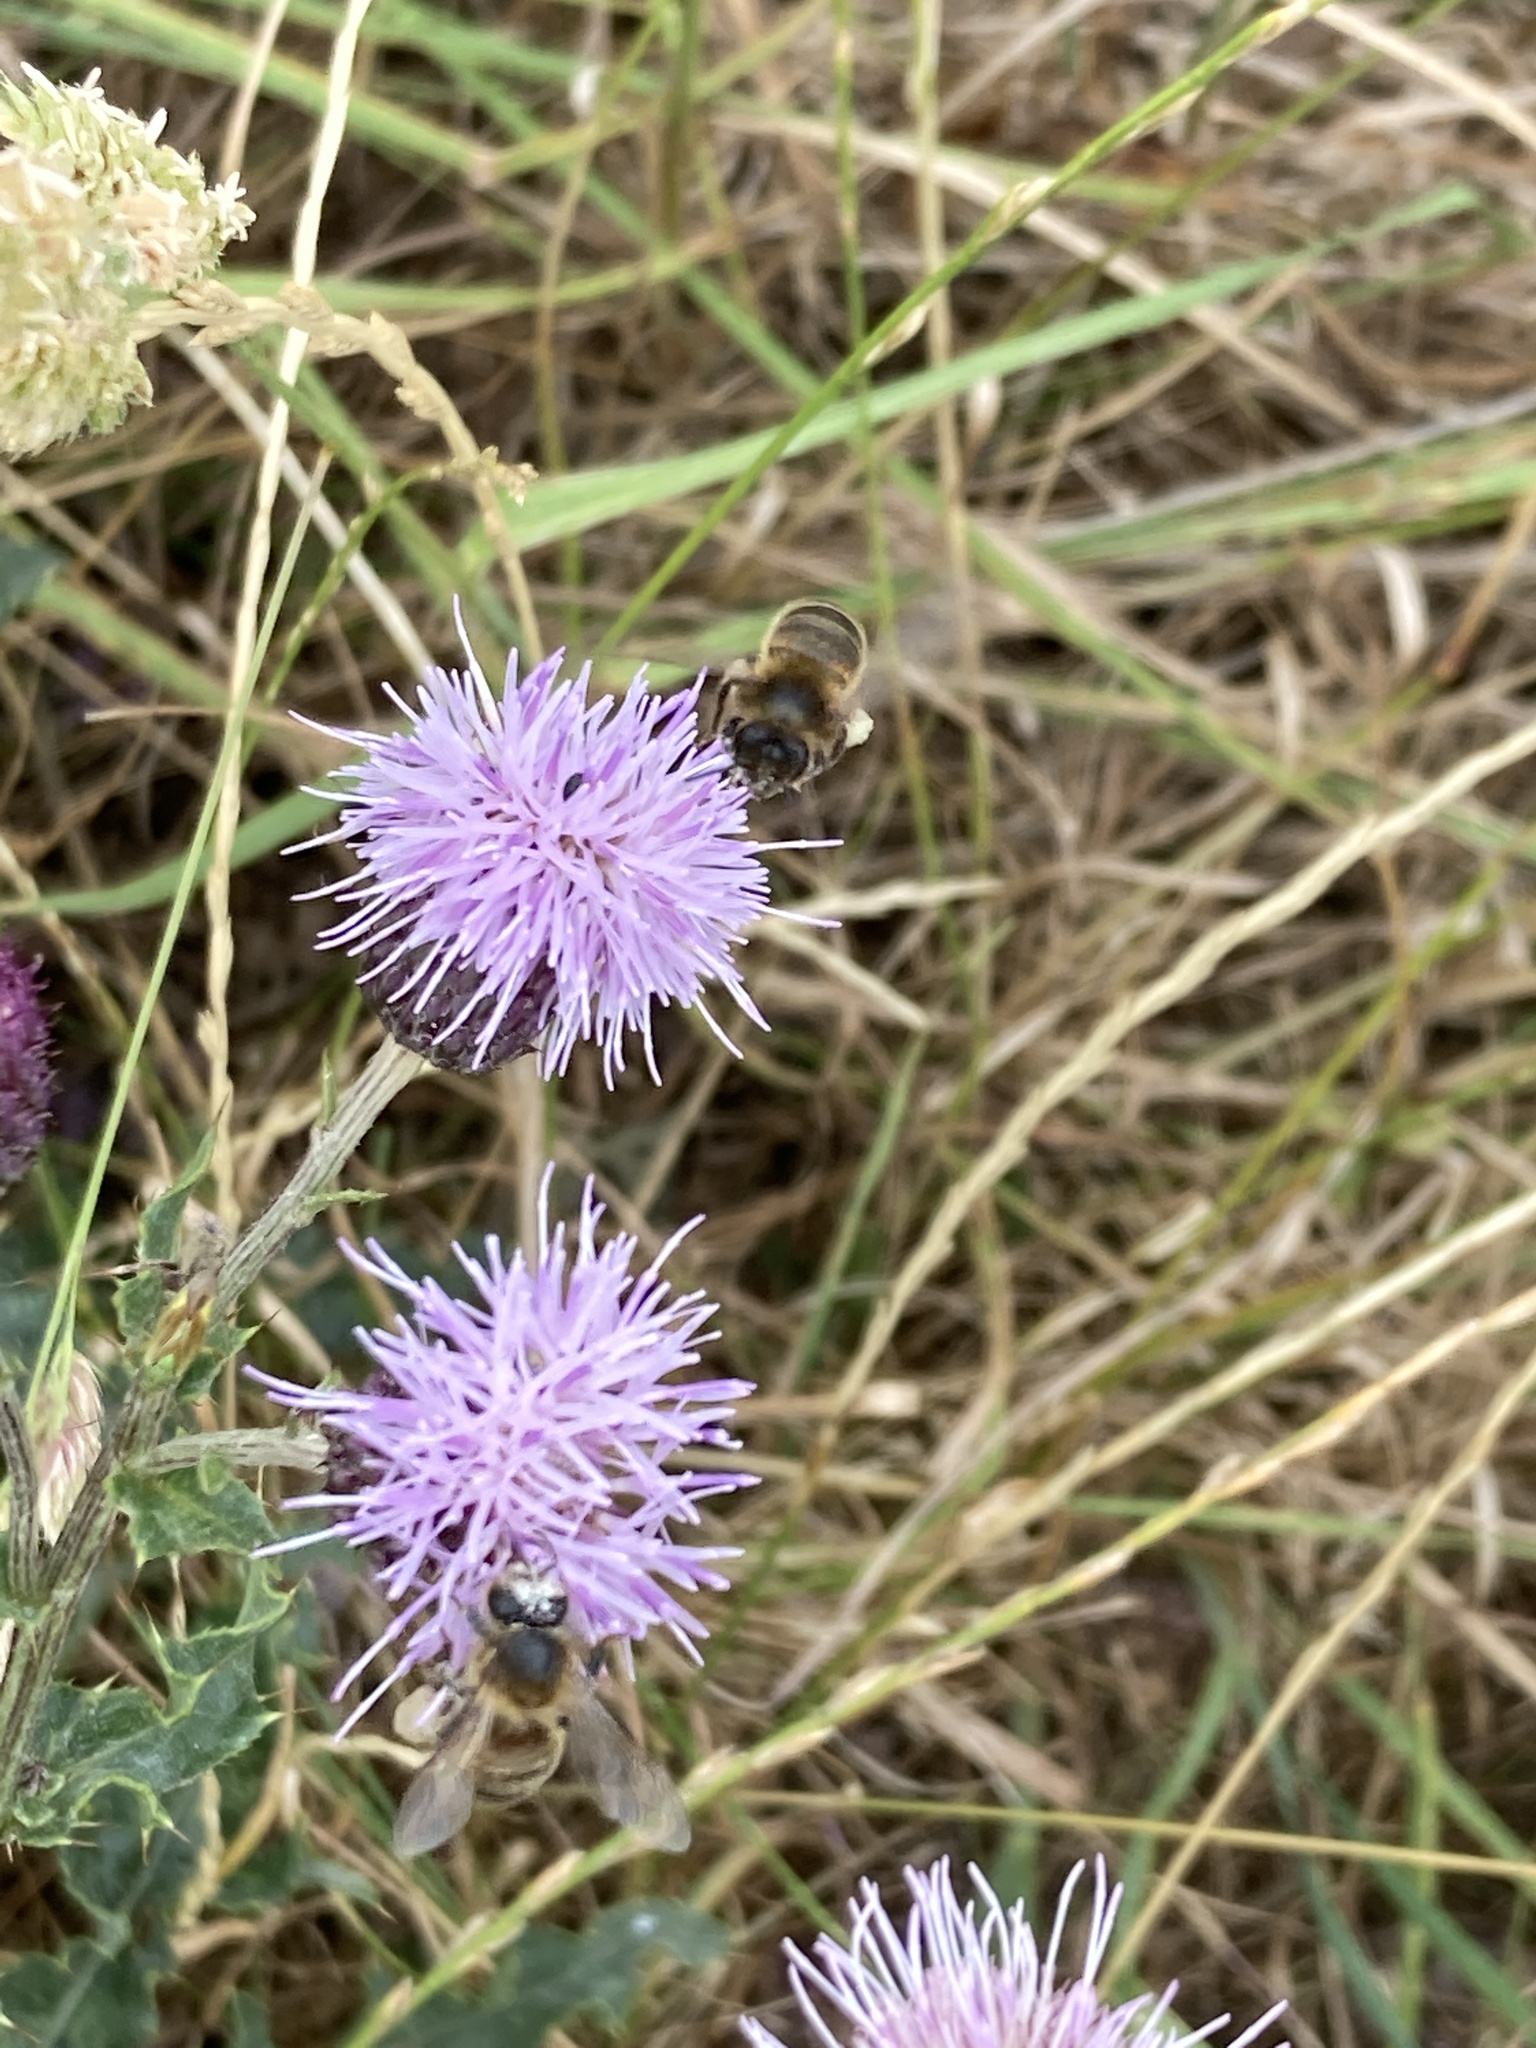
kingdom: Animalia
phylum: Arthropoda
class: Insecta
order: Hymenoptera
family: Apidae
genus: Apis
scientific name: Apis mellifera
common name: Honey bee
